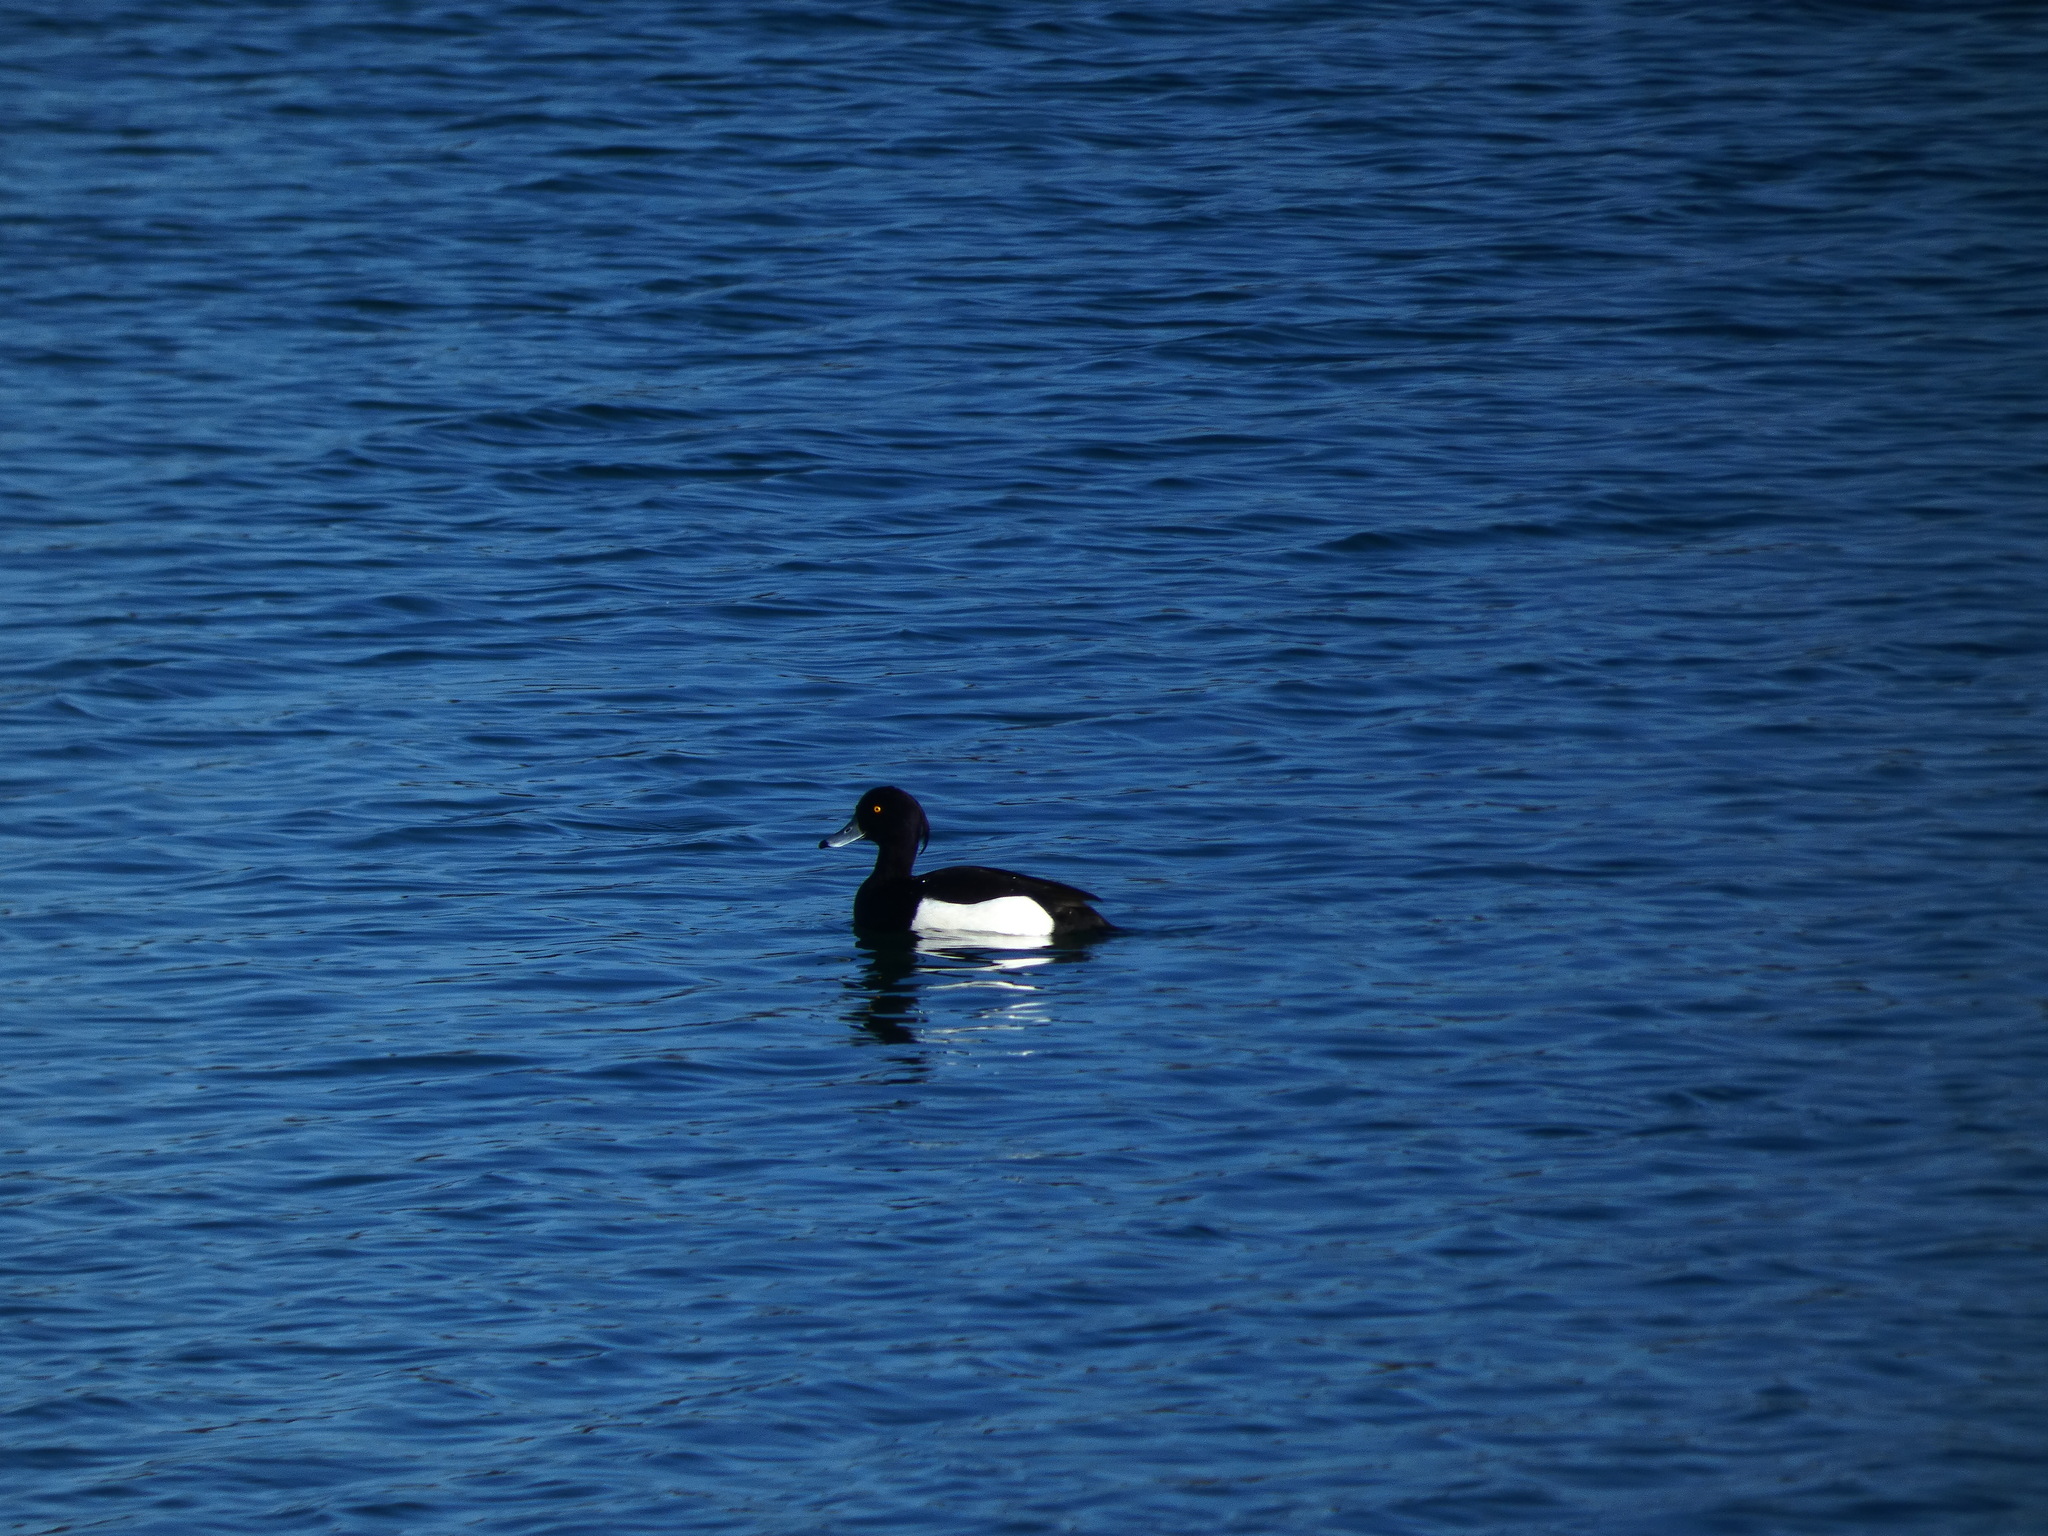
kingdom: Animalia
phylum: Chordata
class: Aves
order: Anseriformes
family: Anatidae
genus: Aythya
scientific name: Aythya fuligula
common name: Tufted duck
